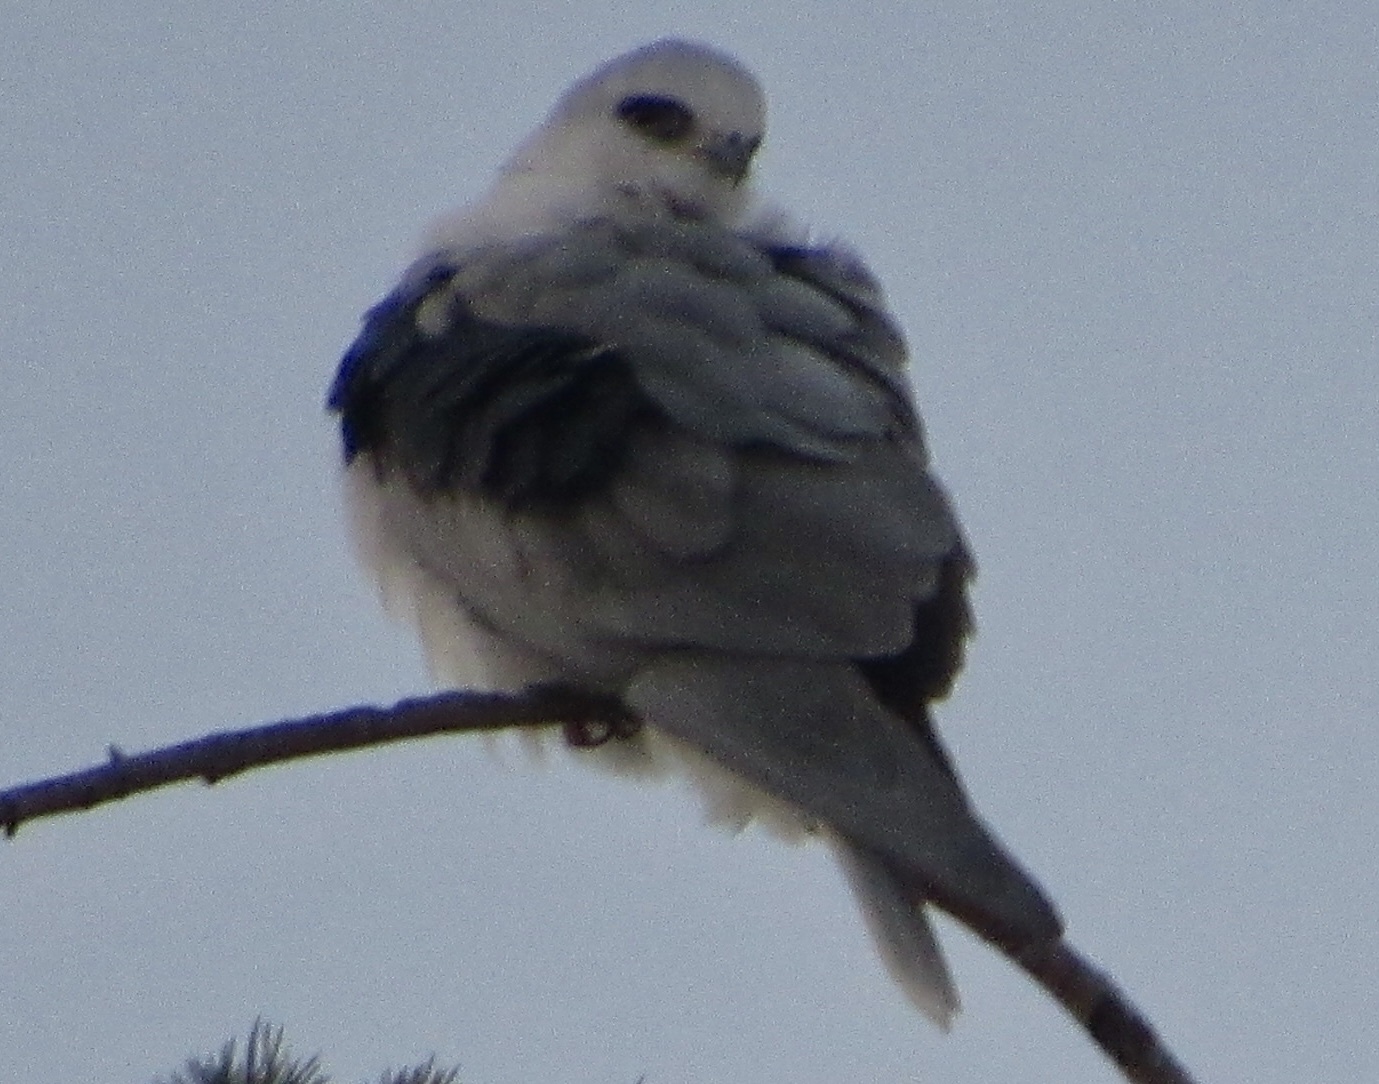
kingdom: Animalia
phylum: Chordata
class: Aves
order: Accipitriformes
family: Accipitridae
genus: Elanus
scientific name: Elanus leucurus
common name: White-tailed kite
